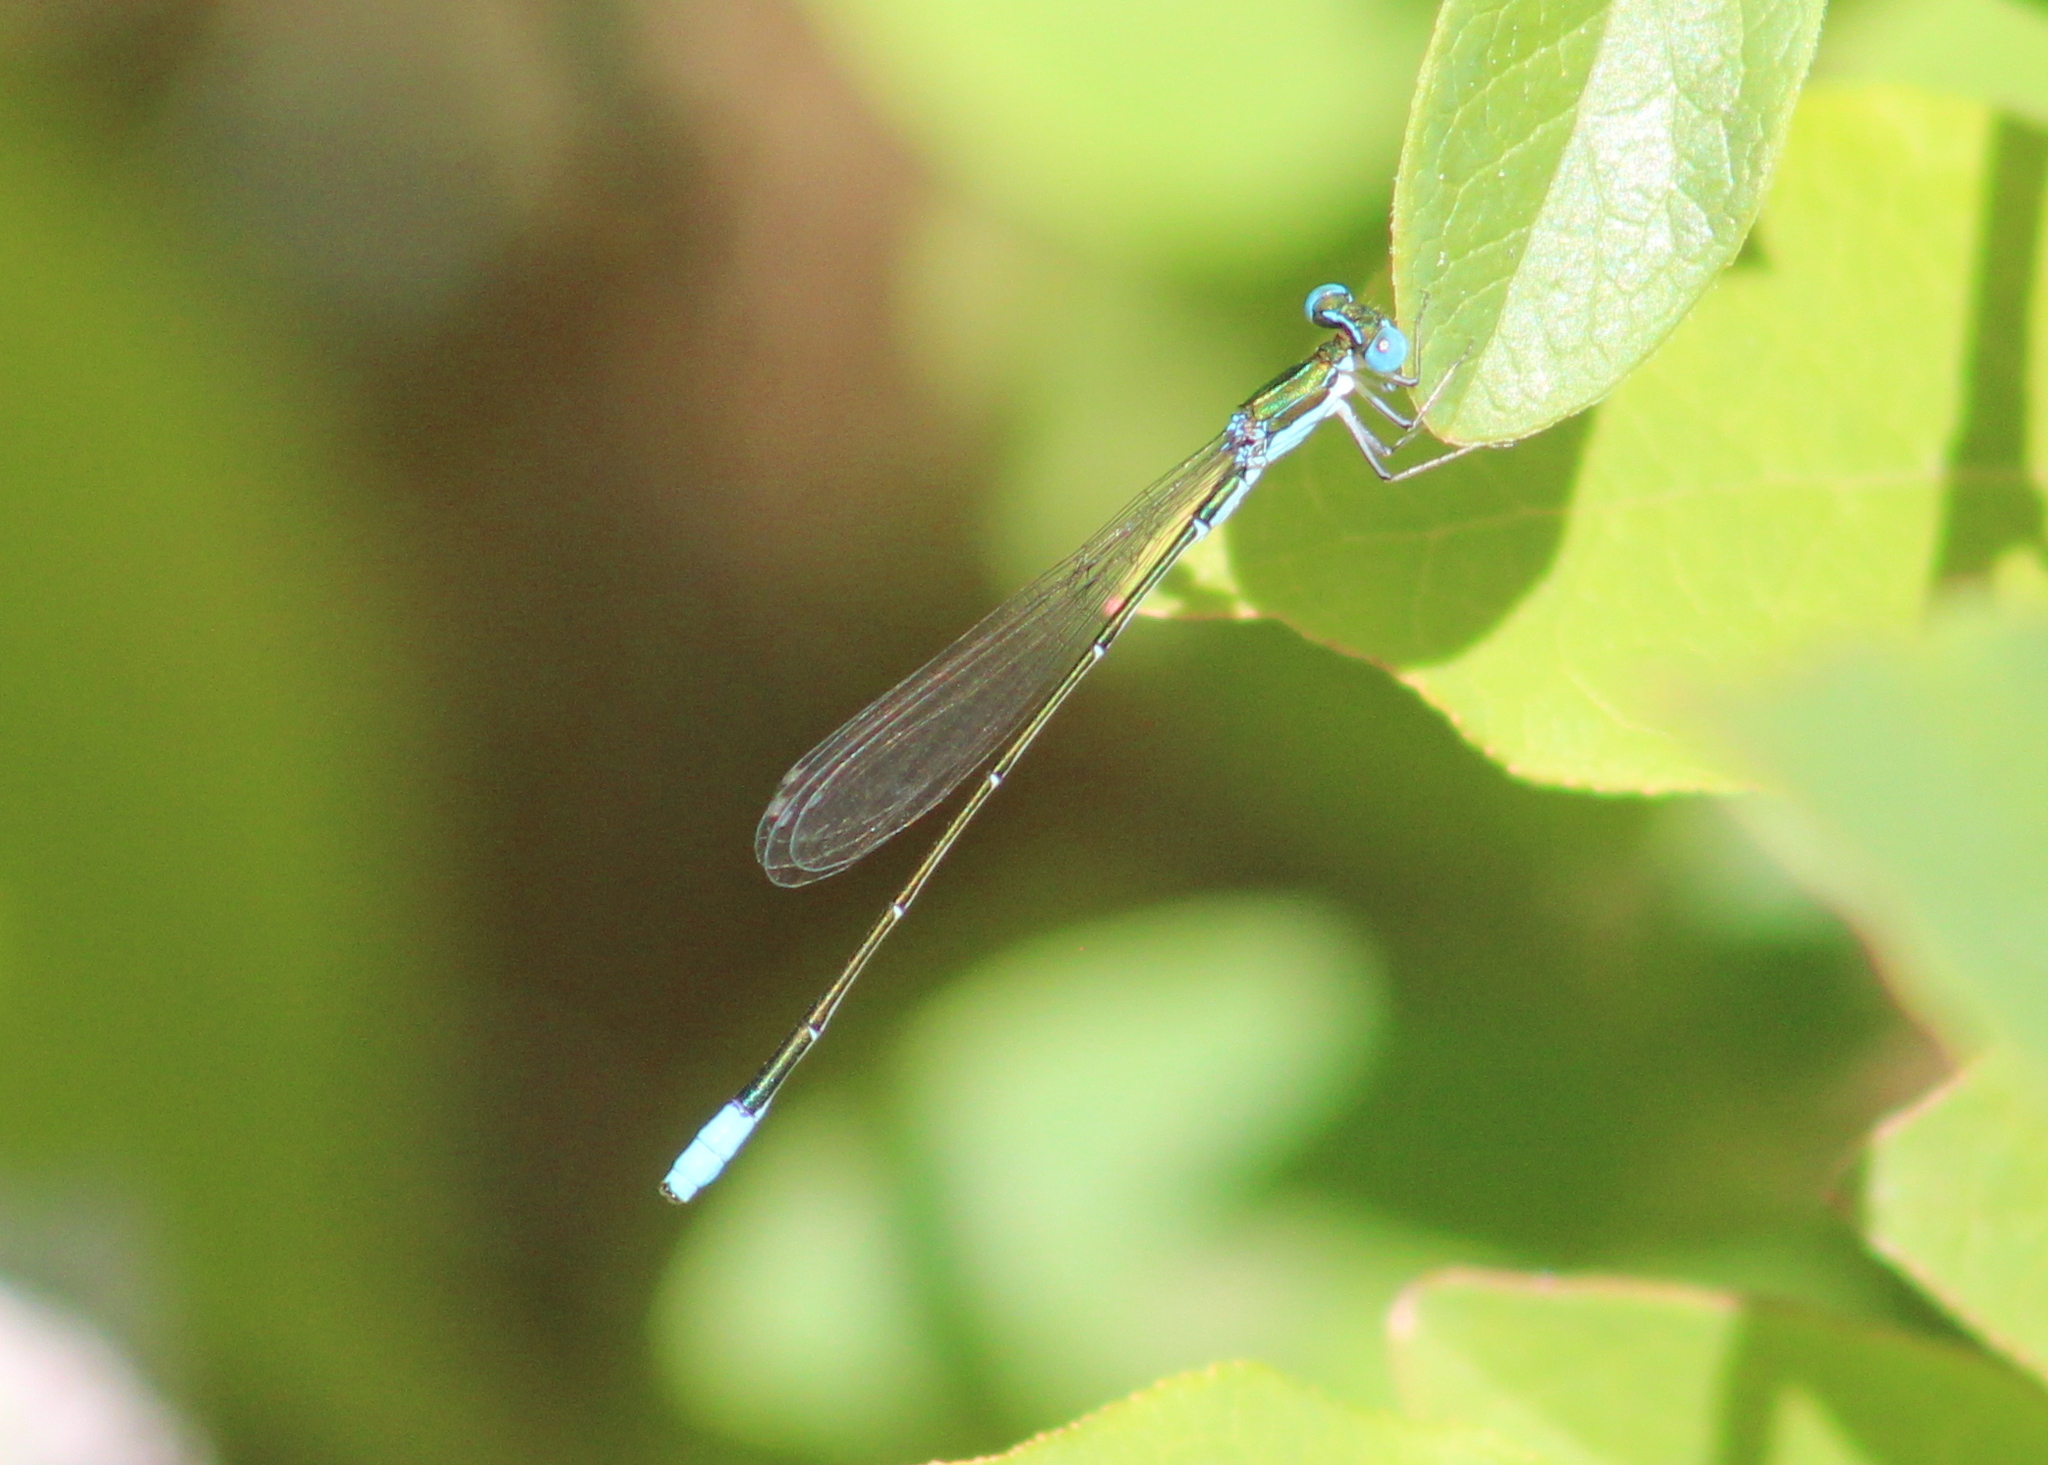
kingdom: Animalia
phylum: Arthropoda
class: Insecta
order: Odonata
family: Coenagrionidae
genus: Nehalennia
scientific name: Nehalennia gracilis
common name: Sphagnum sprite
